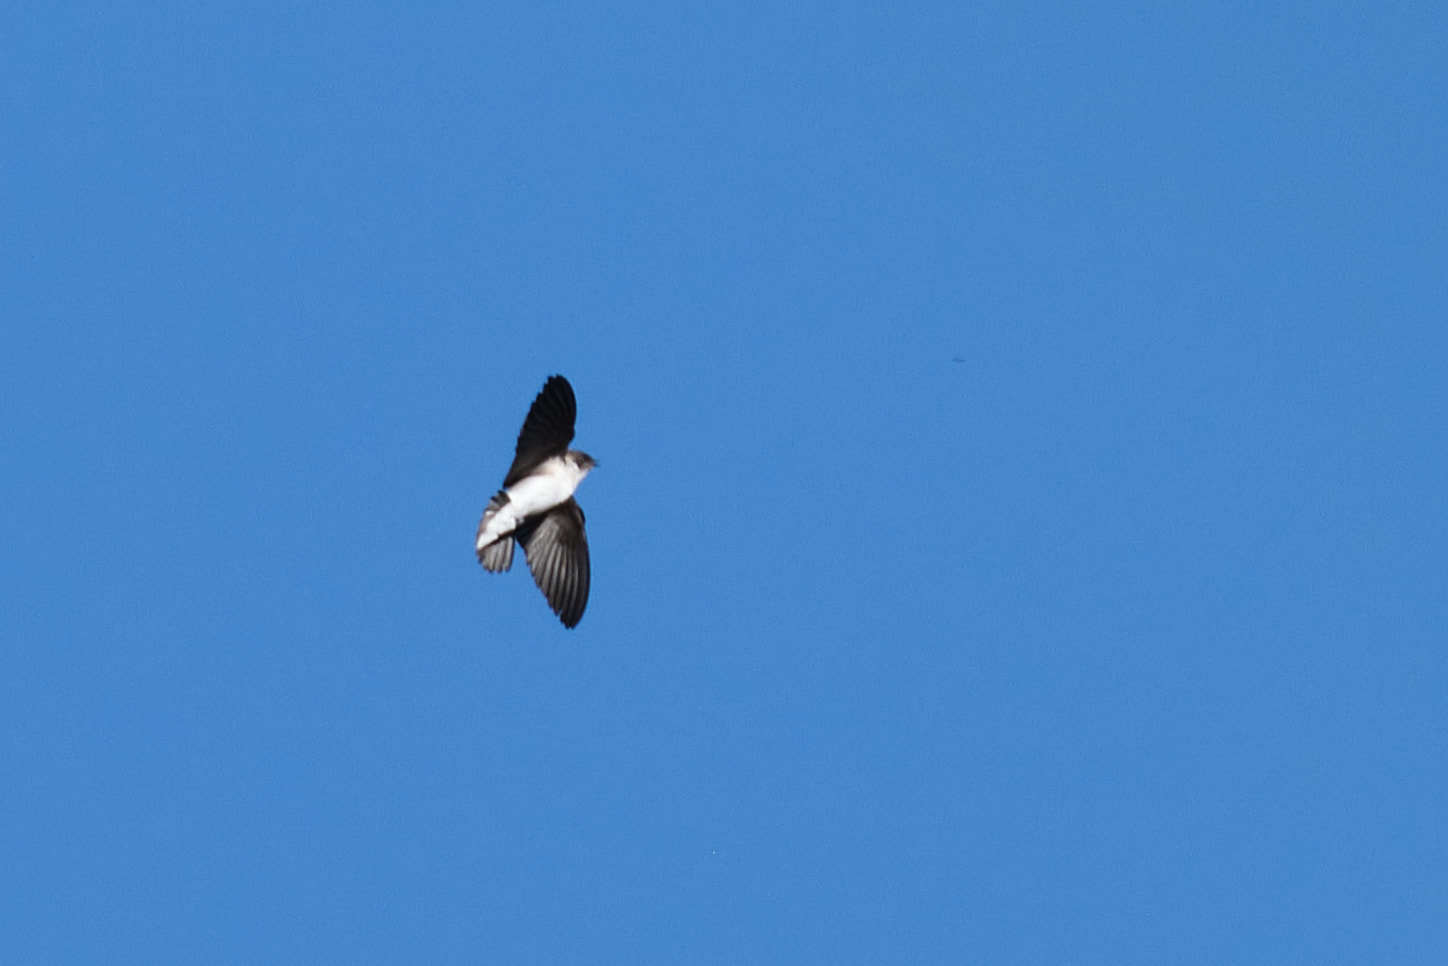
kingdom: Animalia
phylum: Chordata
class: Aves
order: Passeriformes
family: Hirundinidae
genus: Tachycineta
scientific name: Tachycineta thalassina
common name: Violet-green swallow
